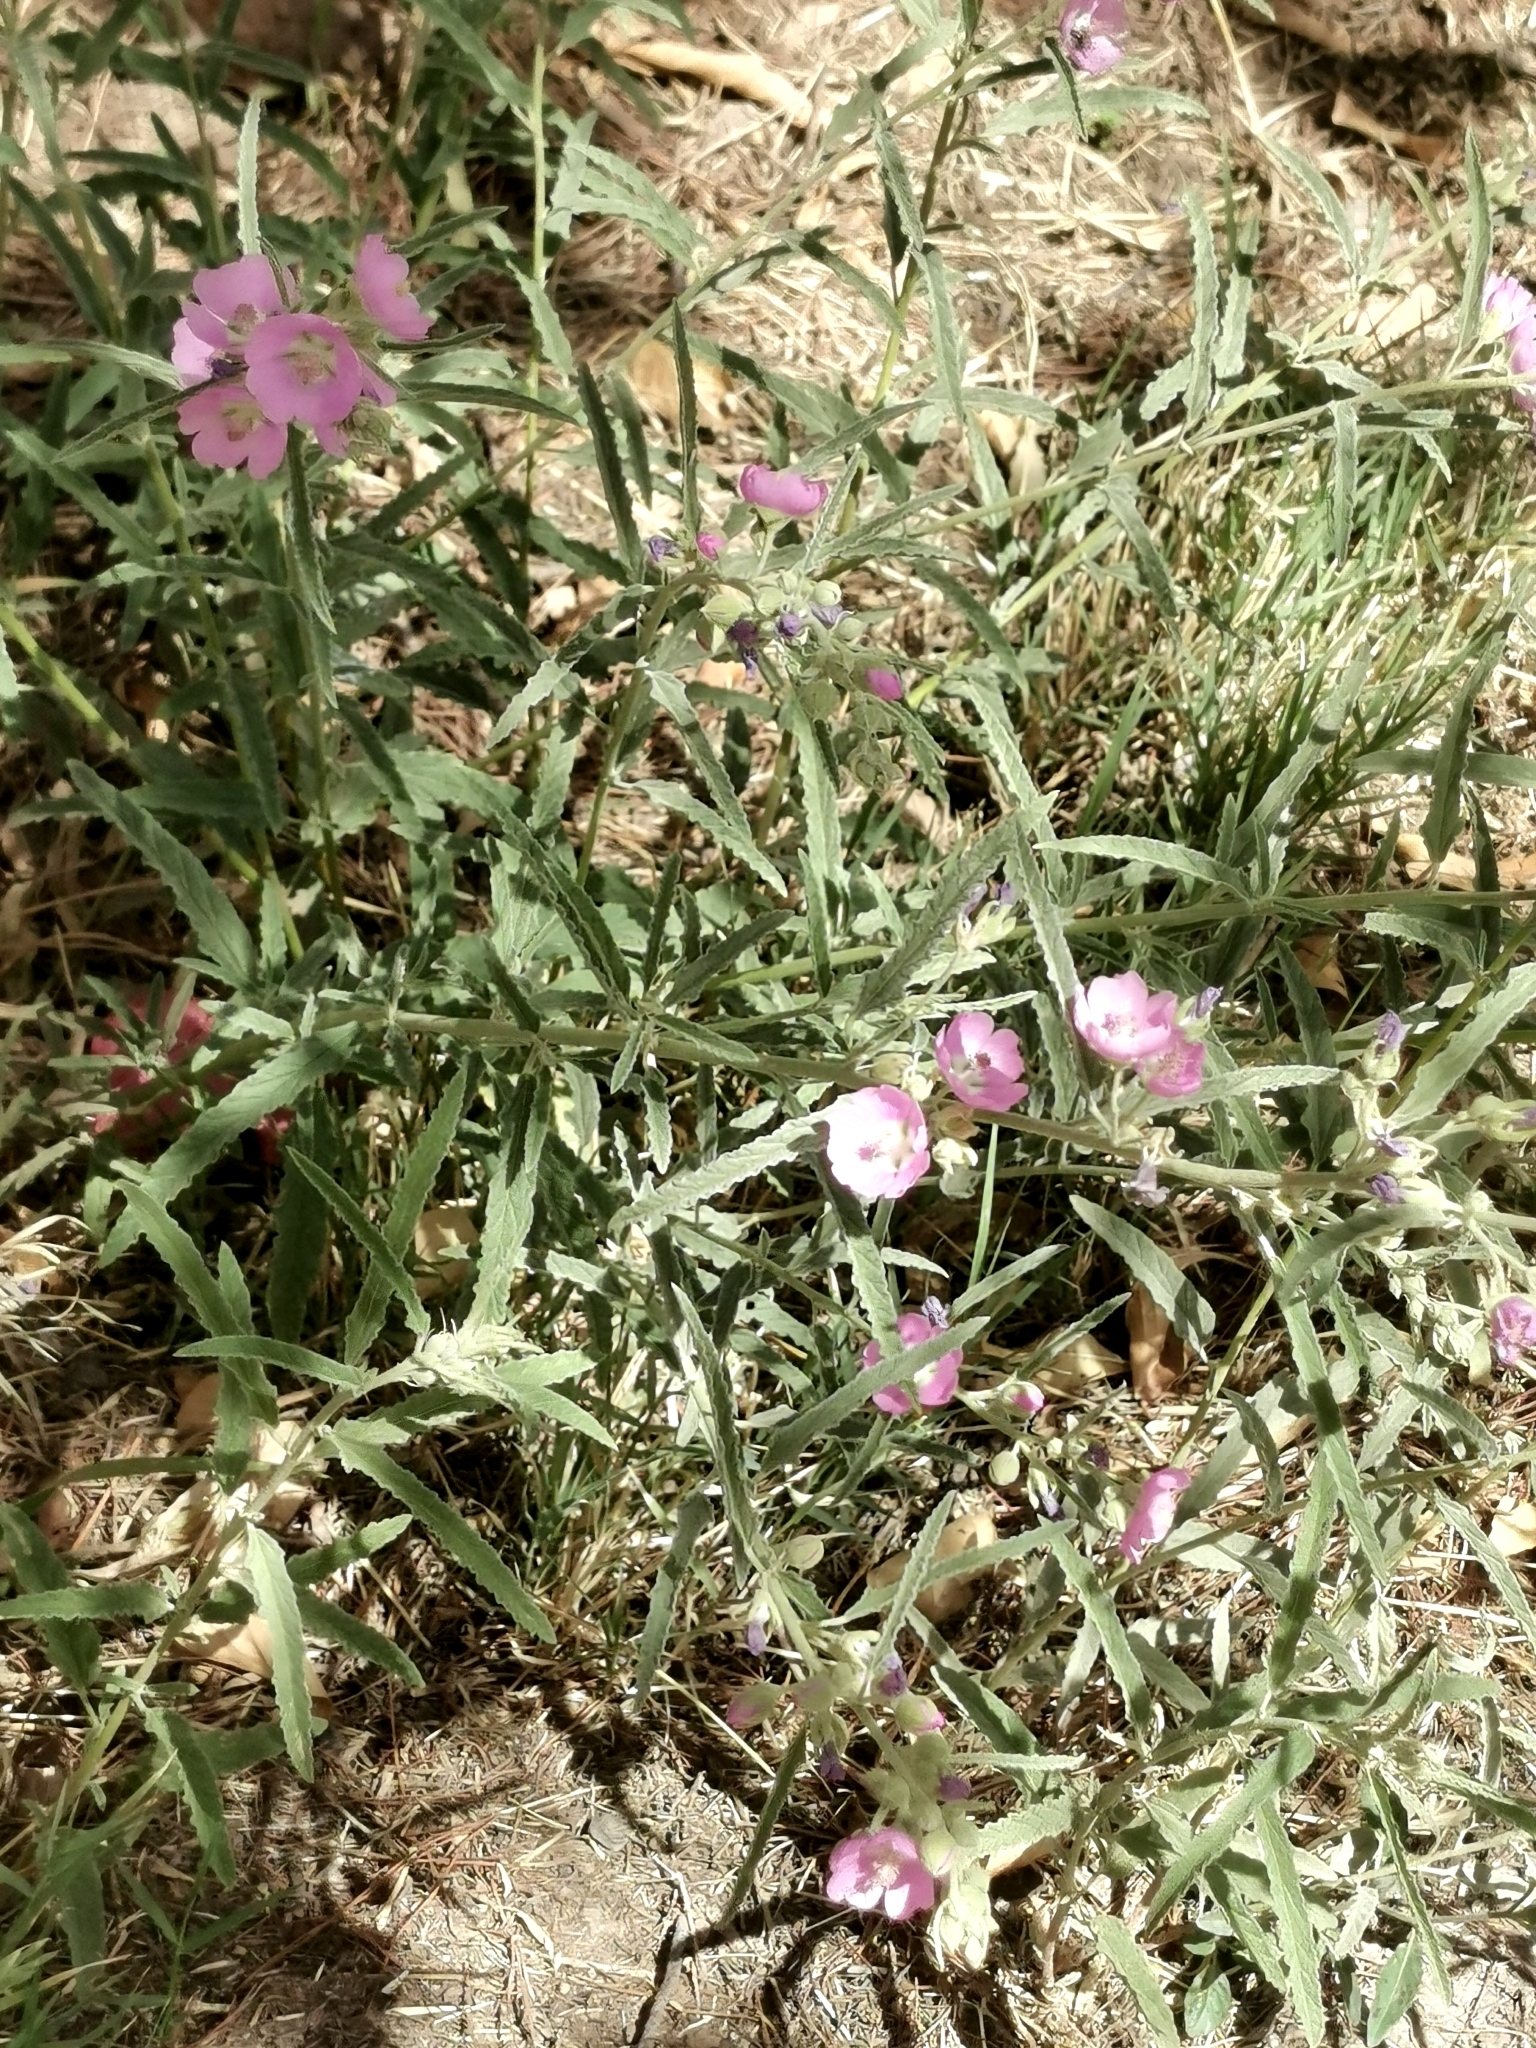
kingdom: Plantae
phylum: Tracheophyta
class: Magnoliopsida
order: Malvales
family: Malvaceae
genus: Sphaeralcea
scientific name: Sphaeralcea angustifolia
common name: Copper globe-mallow
